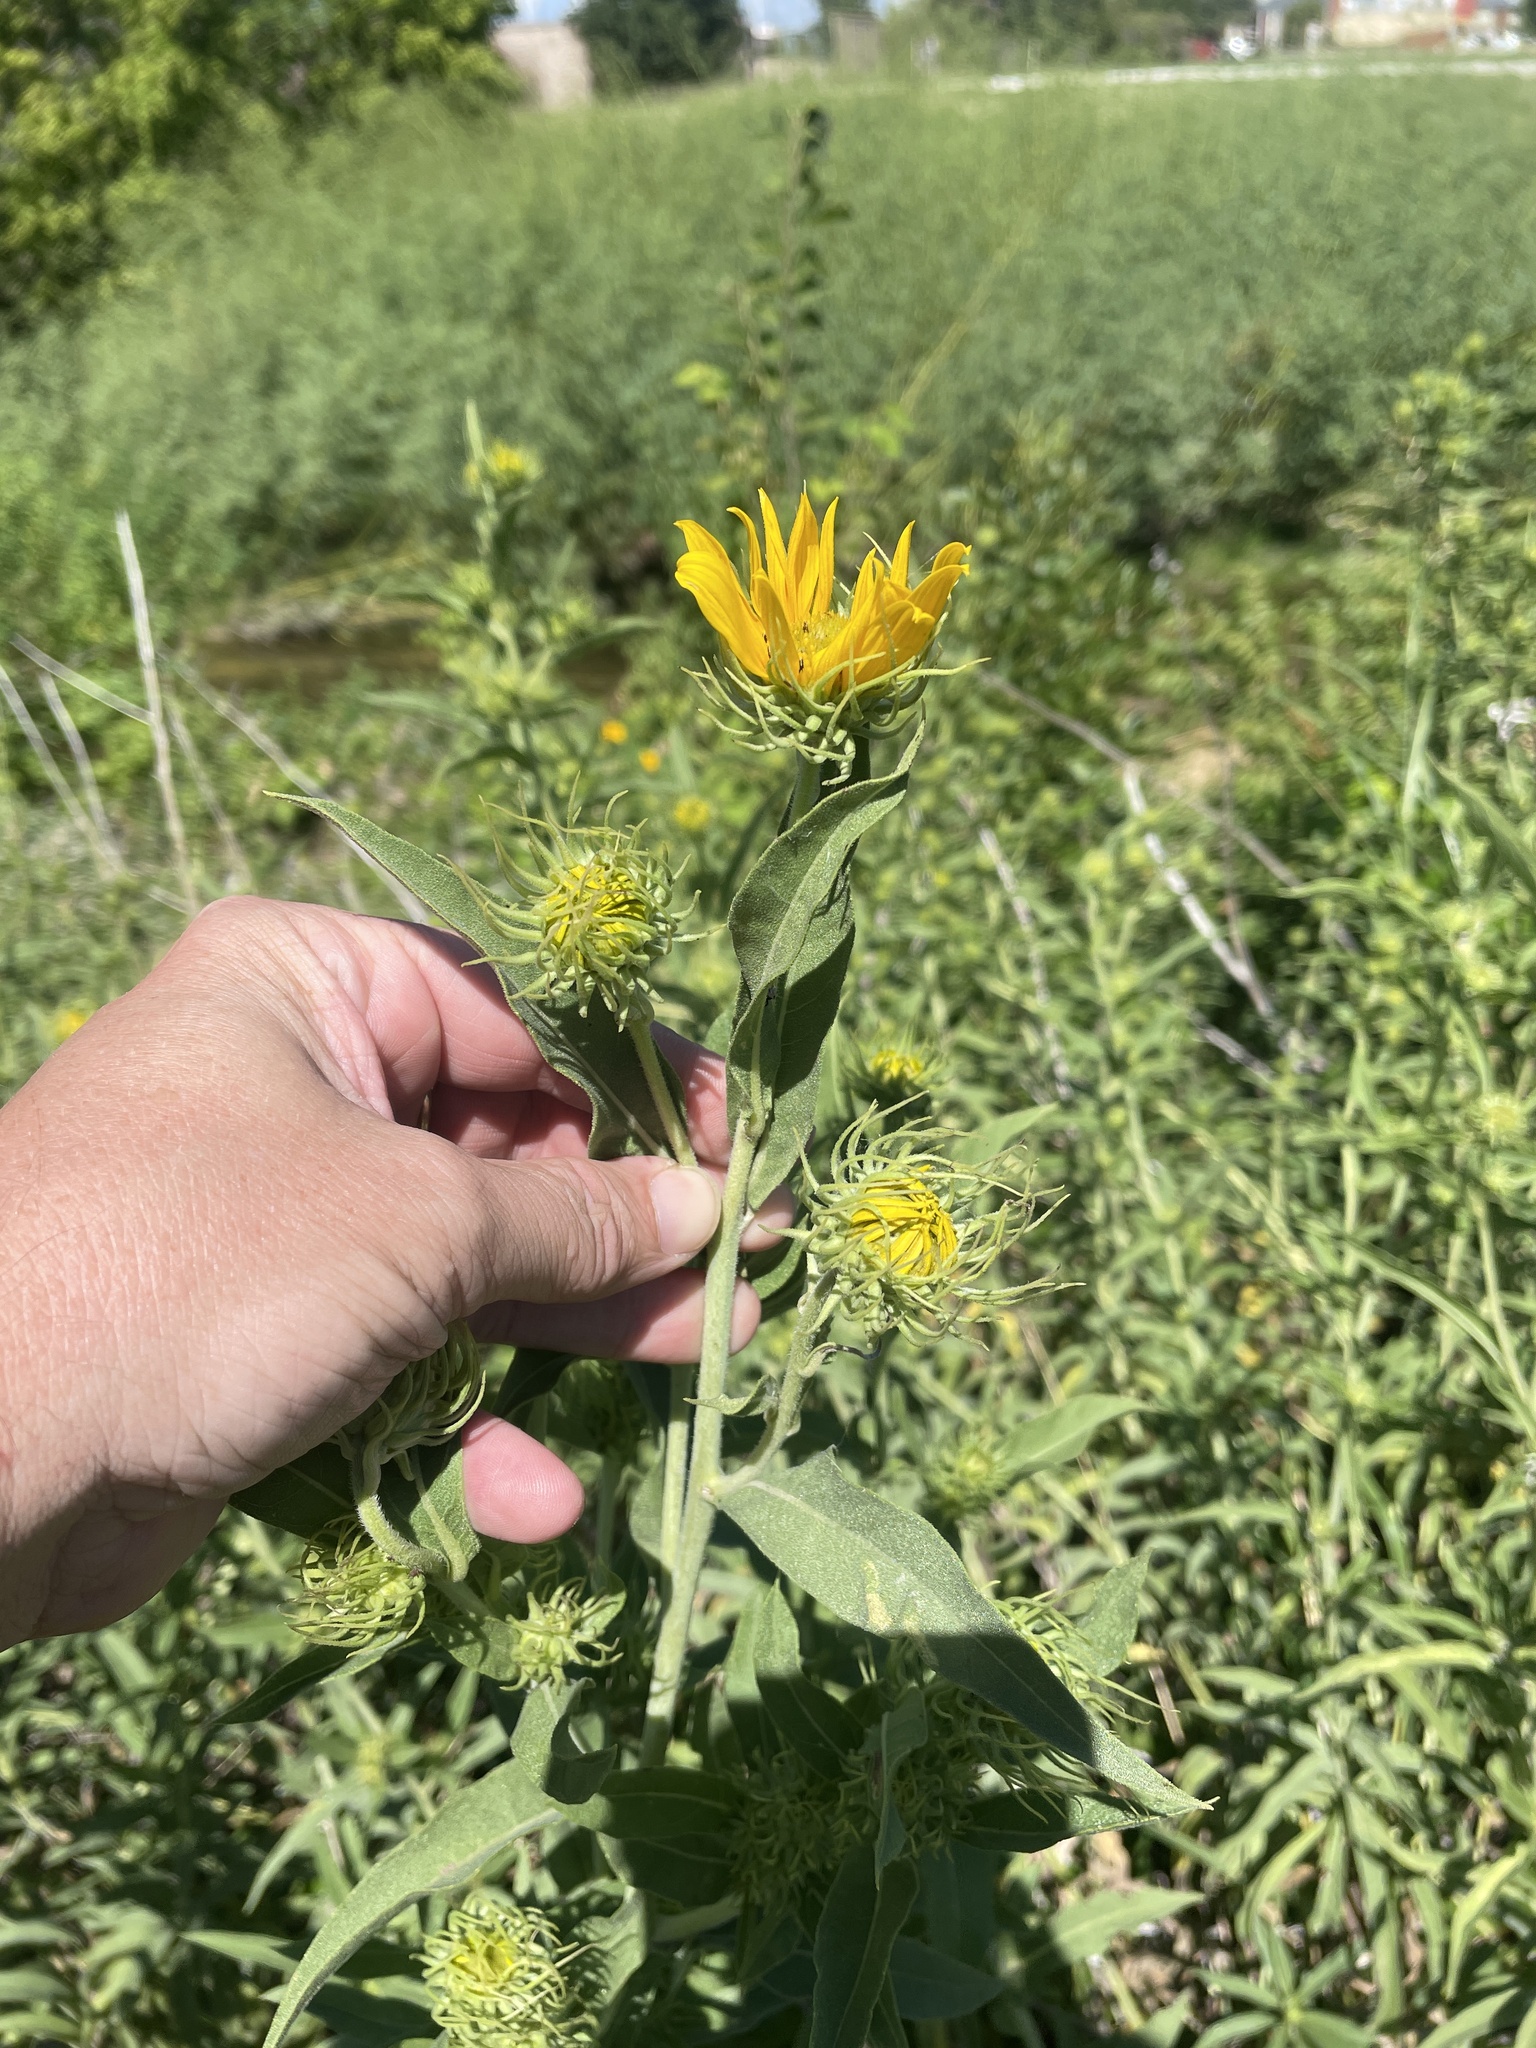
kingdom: Plantae
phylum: Tracheophyta
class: Magnoliopsida
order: Asterales
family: Asteraceae
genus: Helianthus
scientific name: Helianthus maximiliani
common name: Maximilian's sunflower
